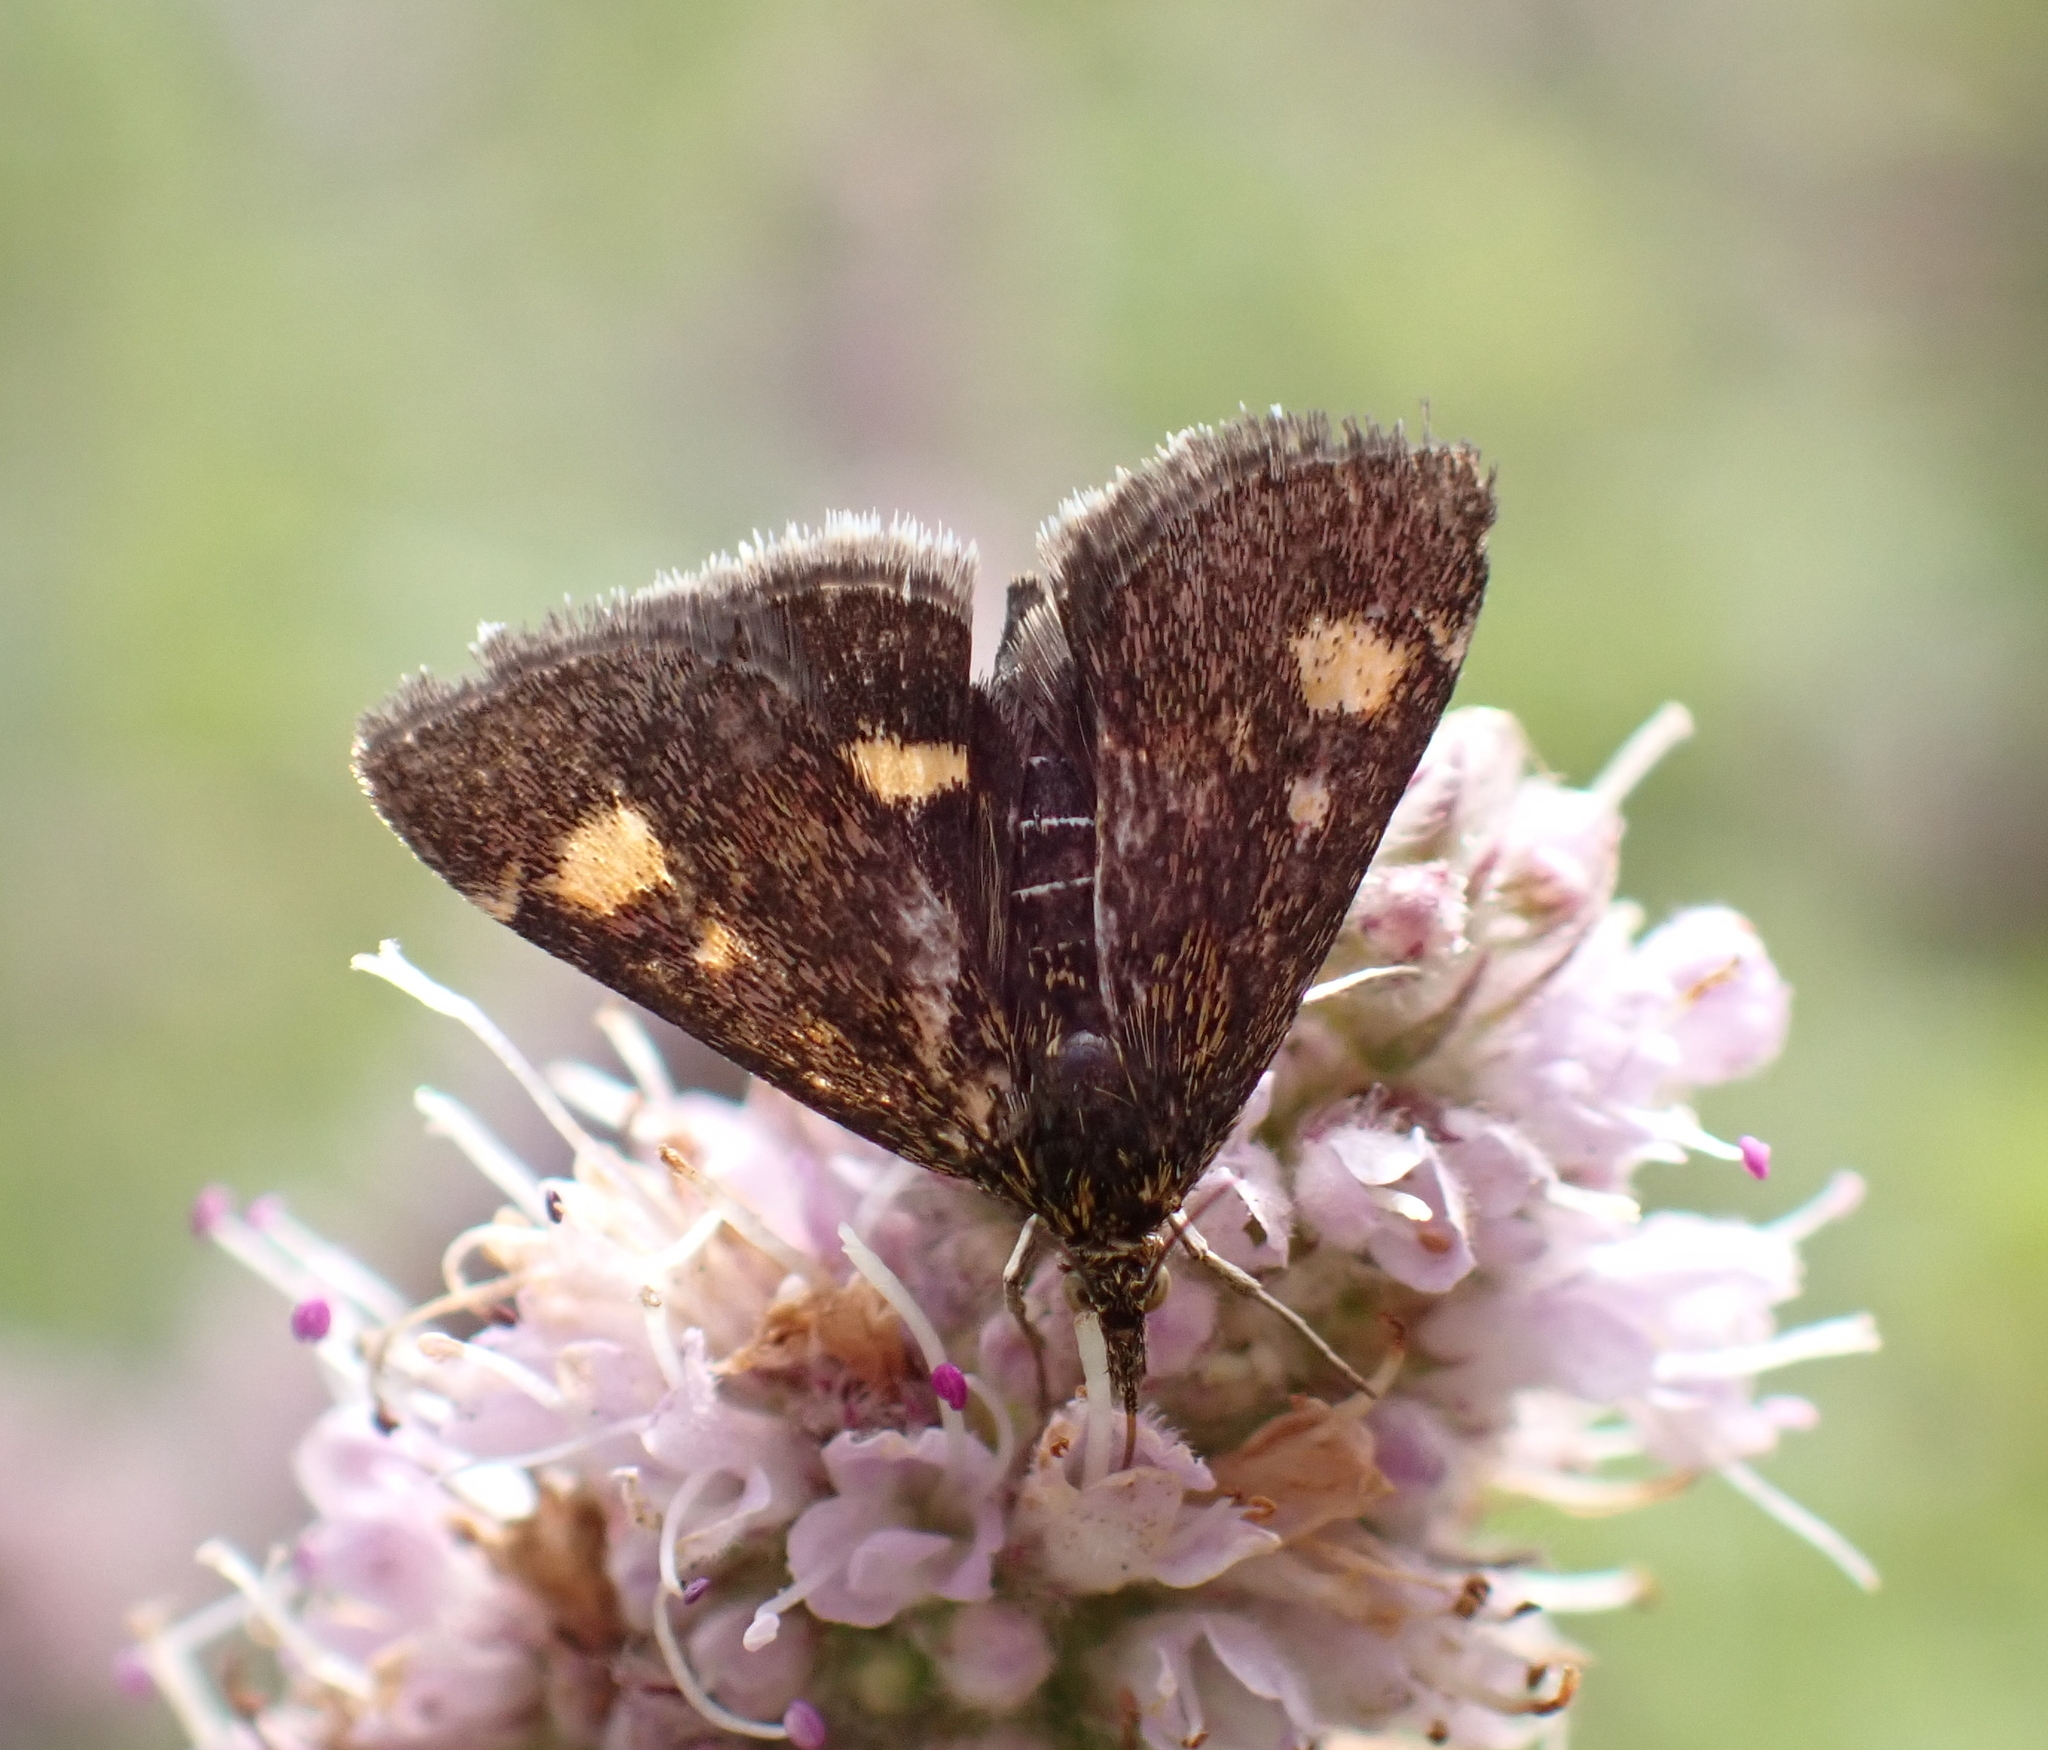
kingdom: Animalia
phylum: Arthropoda
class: Insecta
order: Lepidoptera
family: Crambidae
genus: Pyrausta
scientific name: Pyrausta aurata
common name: Small purple & gold
